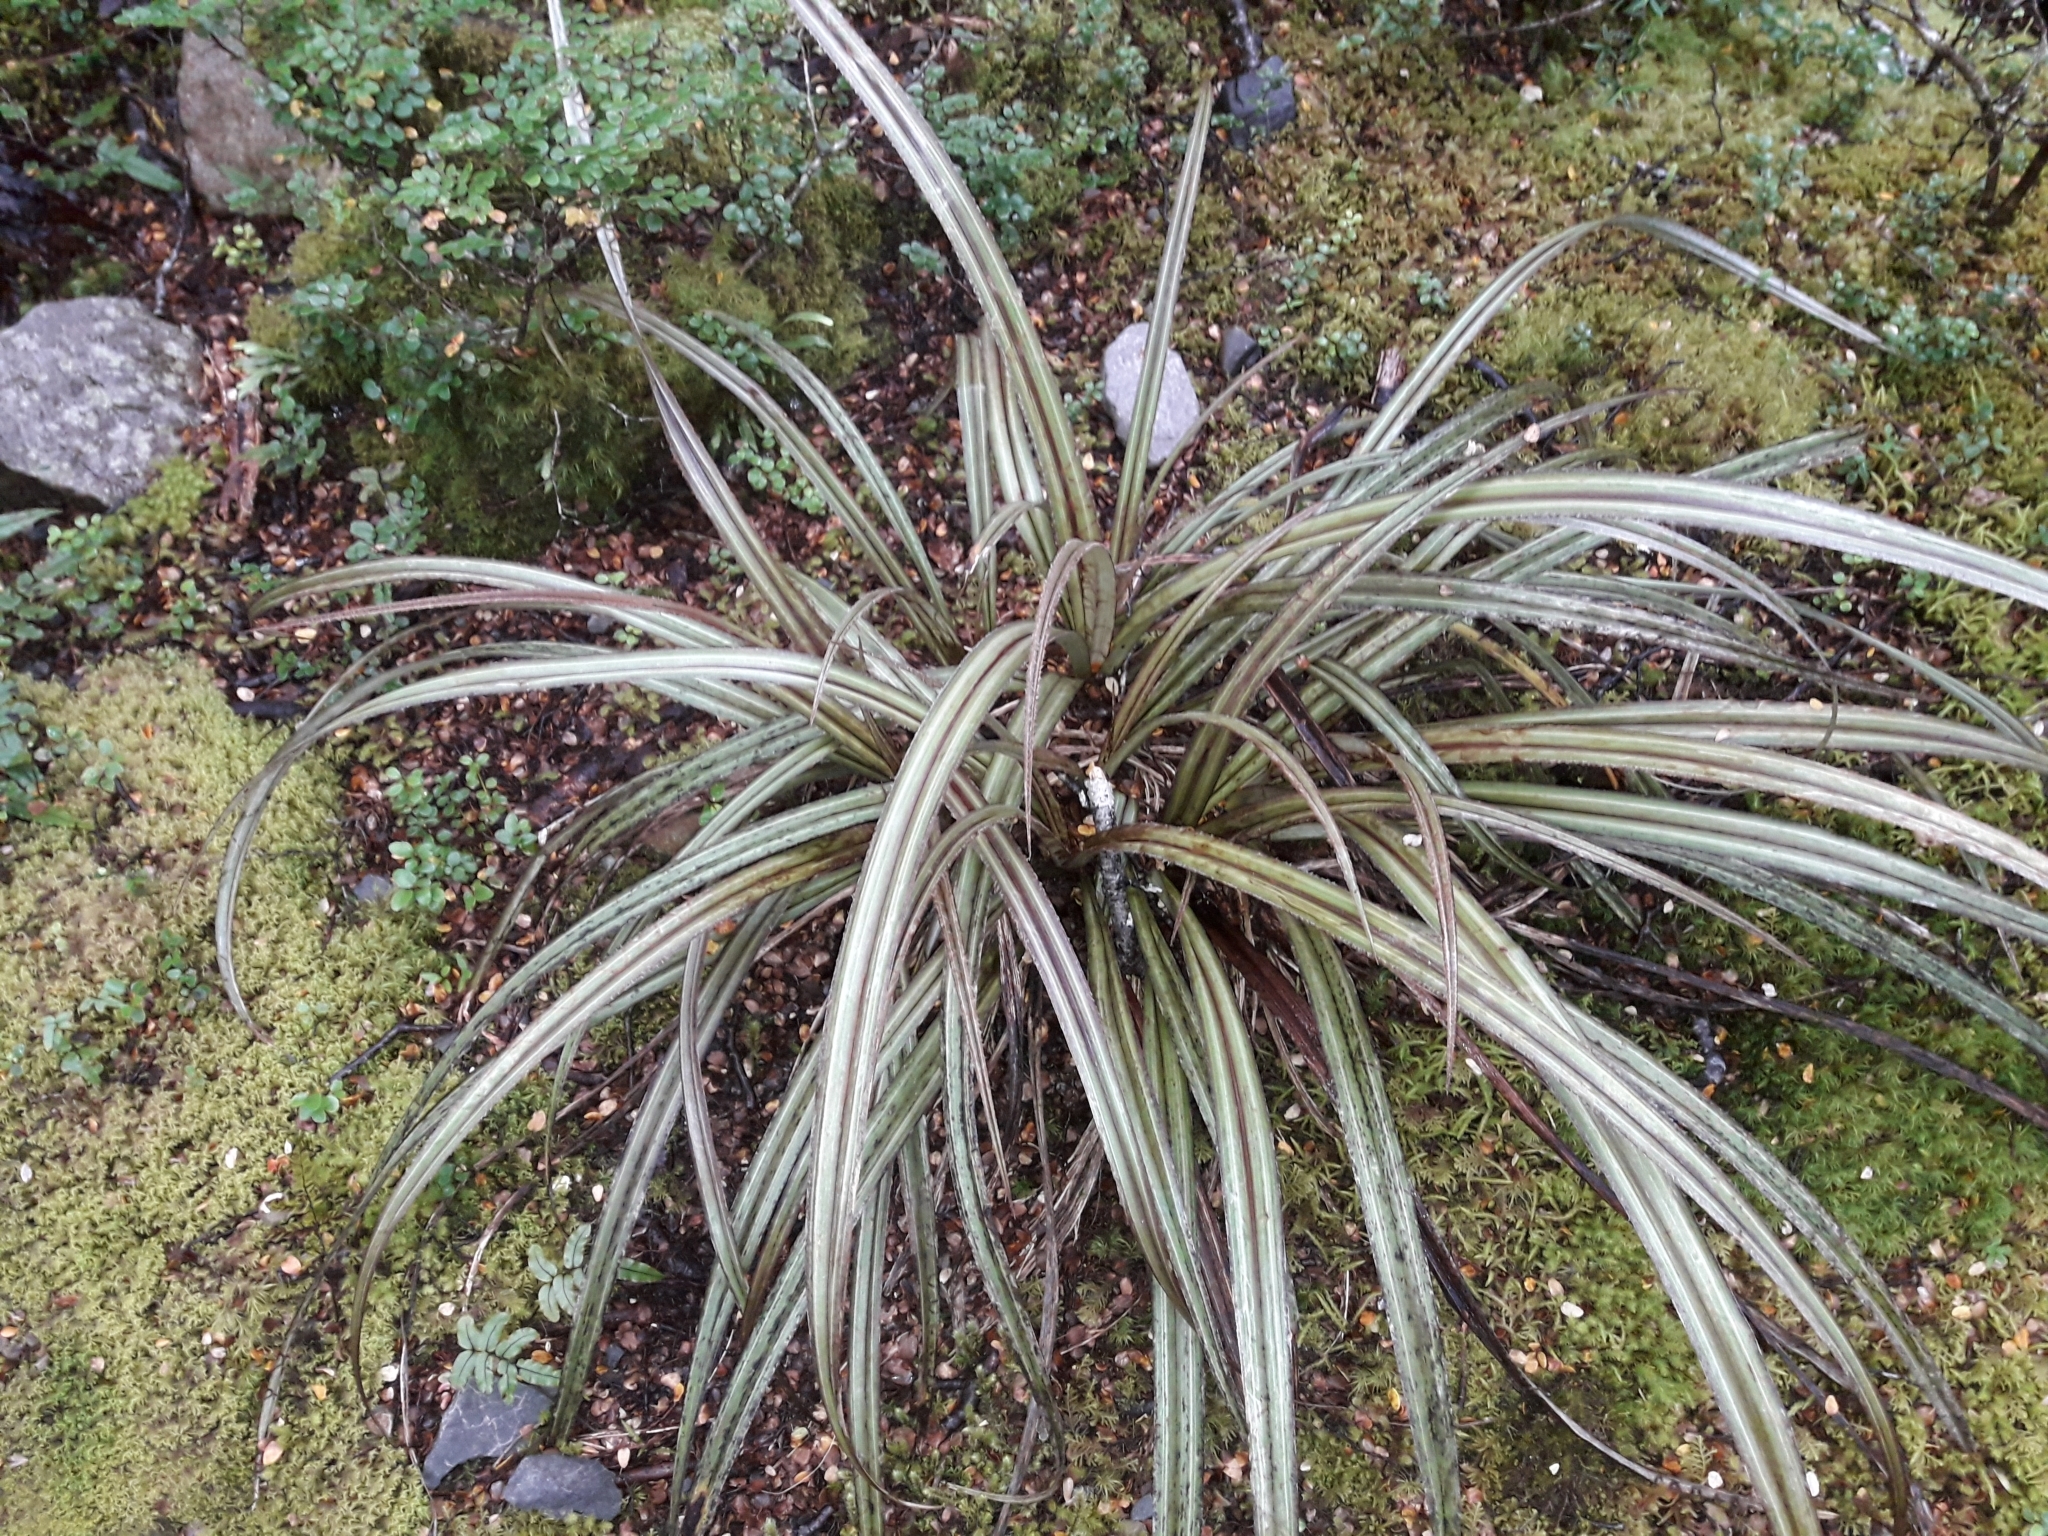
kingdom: Plantae
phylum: Tracheophyta
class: Liliopsida
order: Asparagales
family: Asteliaceae
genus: Astelia
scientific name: Astelia nervosa
